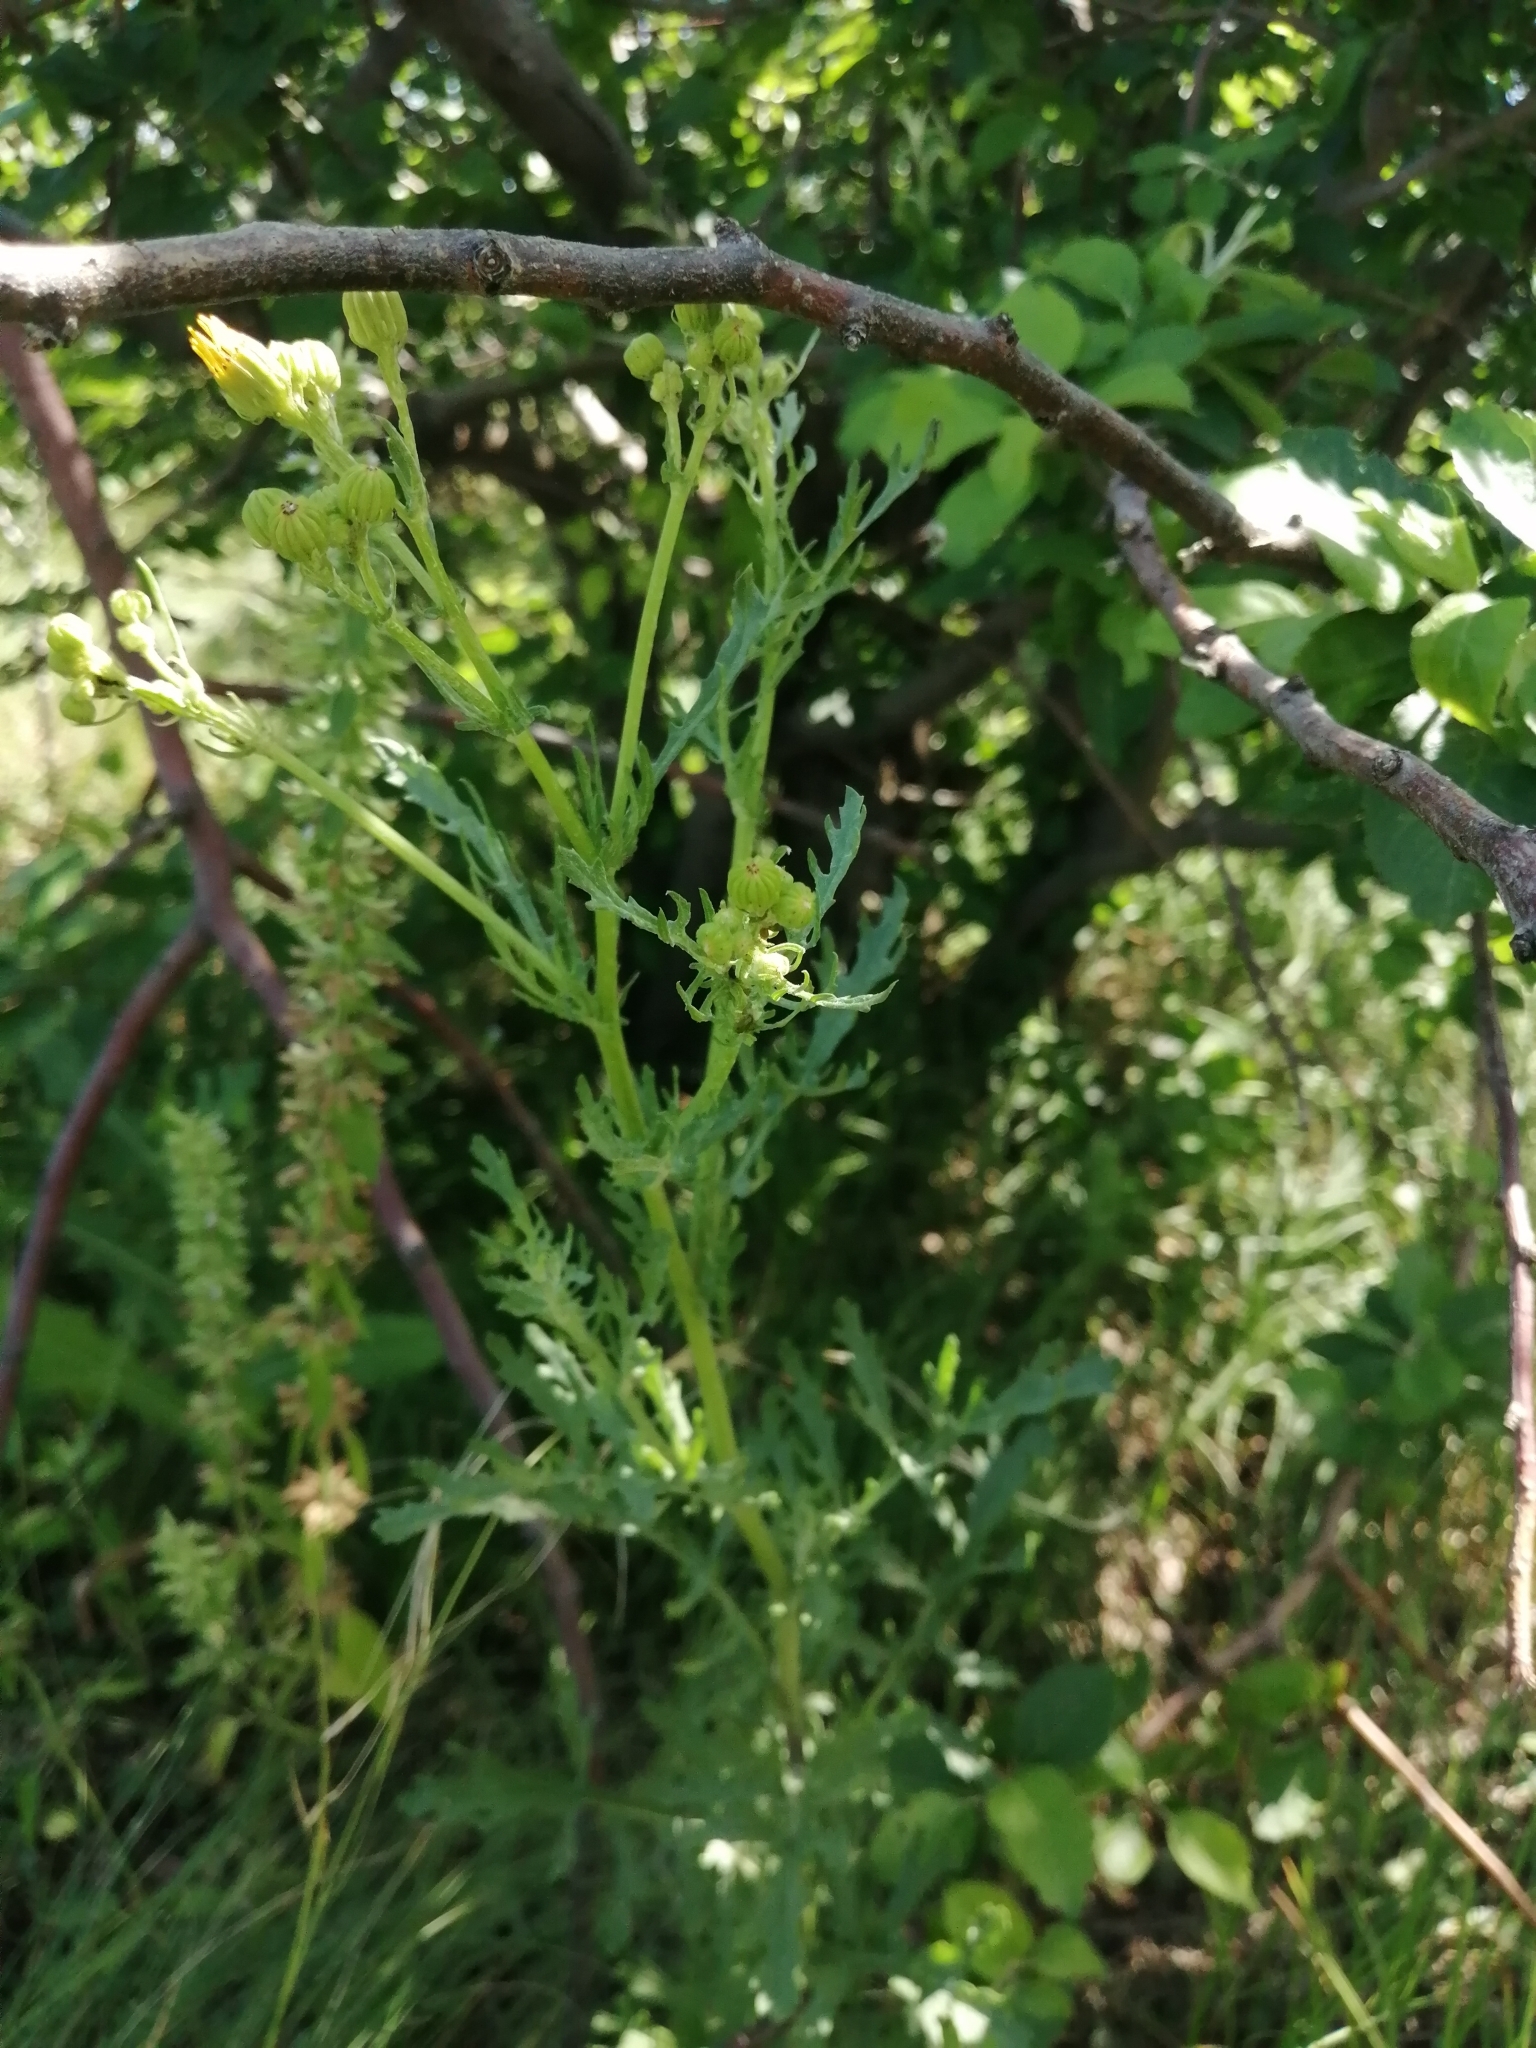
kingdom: Plantae
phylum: Tracheophyta
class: Magnoliopsida
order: Asterales
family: Asteraceae
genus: Jacobaea
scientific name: Jacobaea vulgaris
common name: Stinking willie
